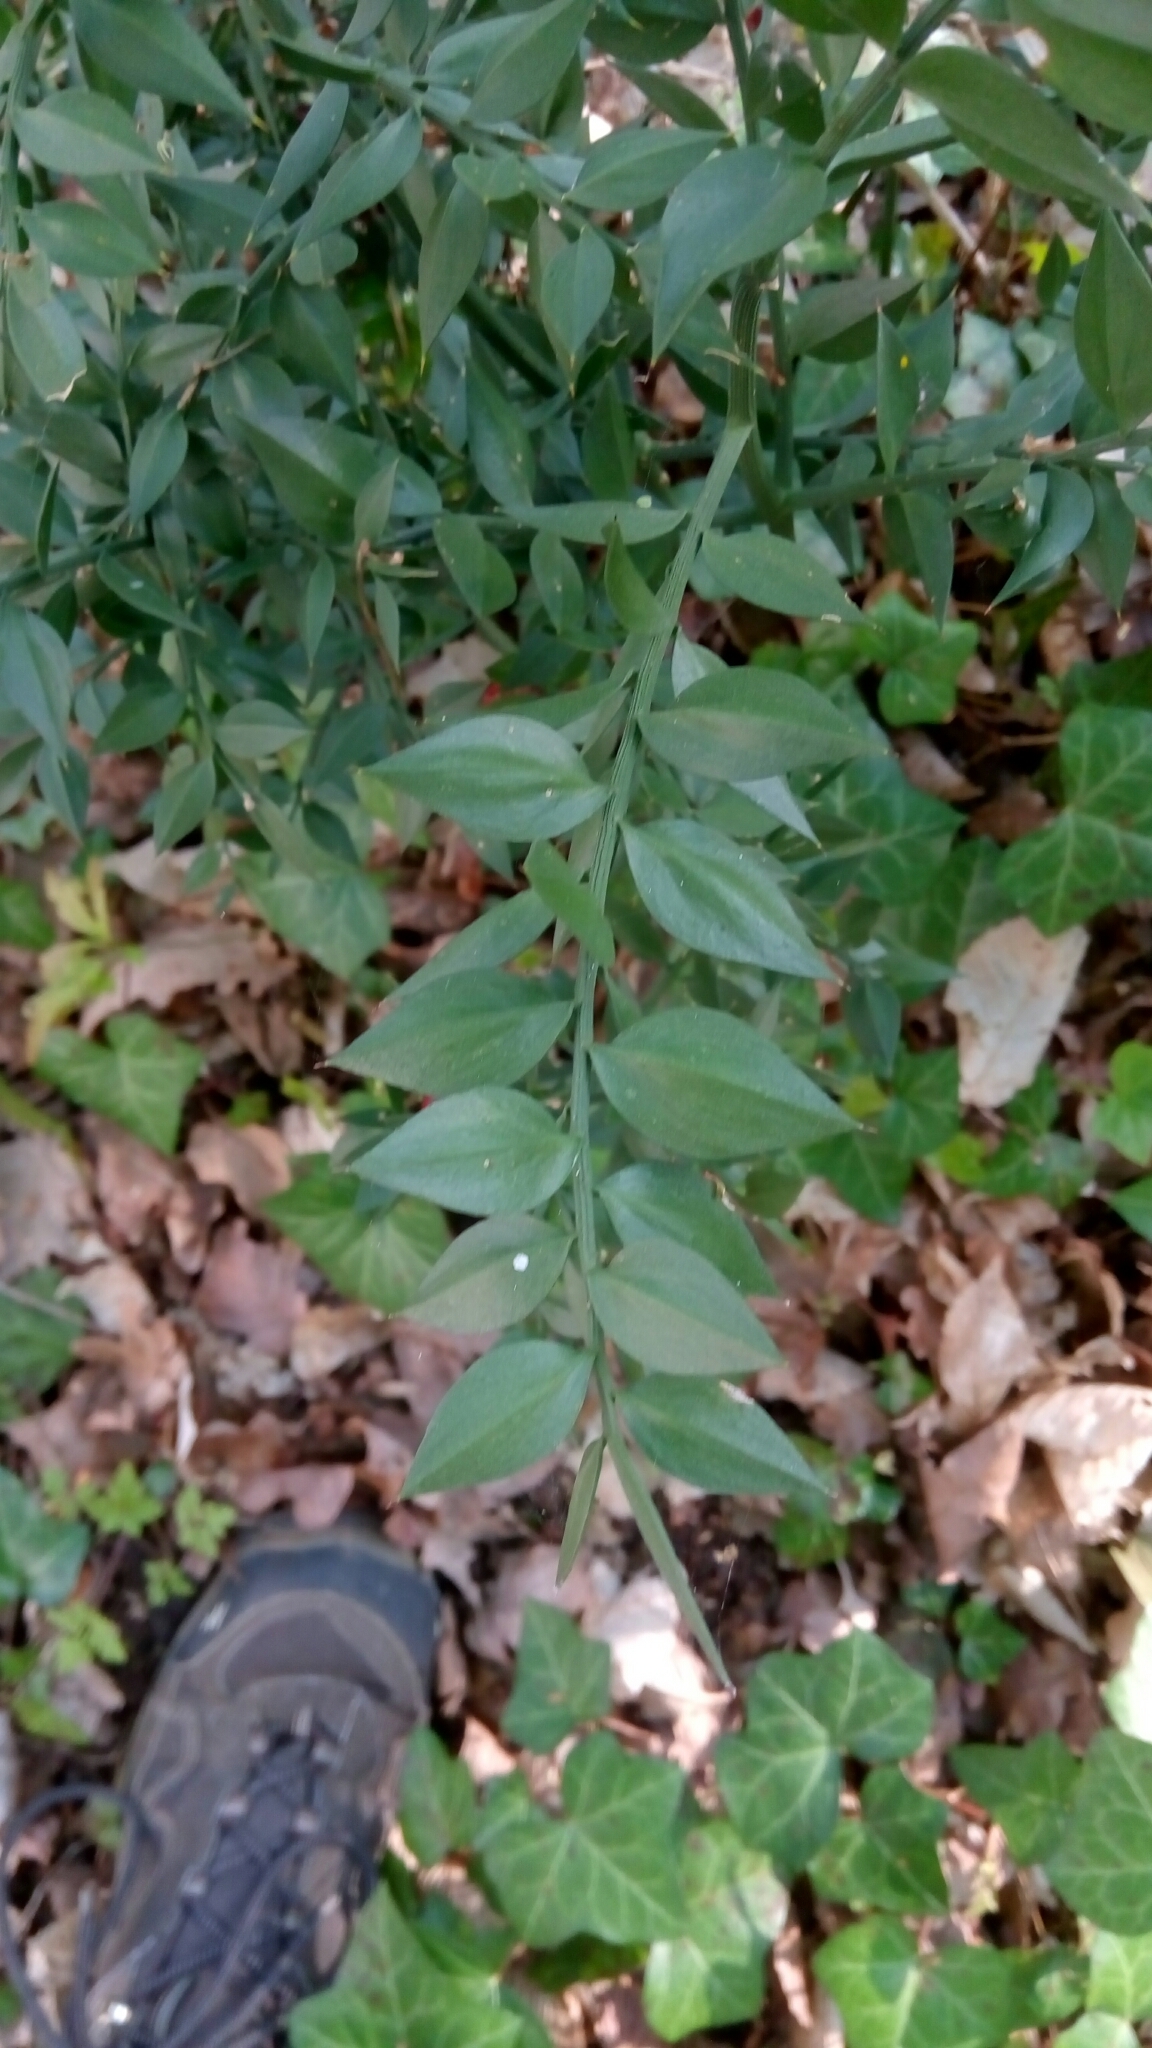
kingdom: Plantae
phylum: Tracheophyta
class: Liliopsida
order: Asparagales
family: Asparagaceae
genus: Ruscus
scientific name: Ruscus aculeatus
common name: Butcher's-broom
